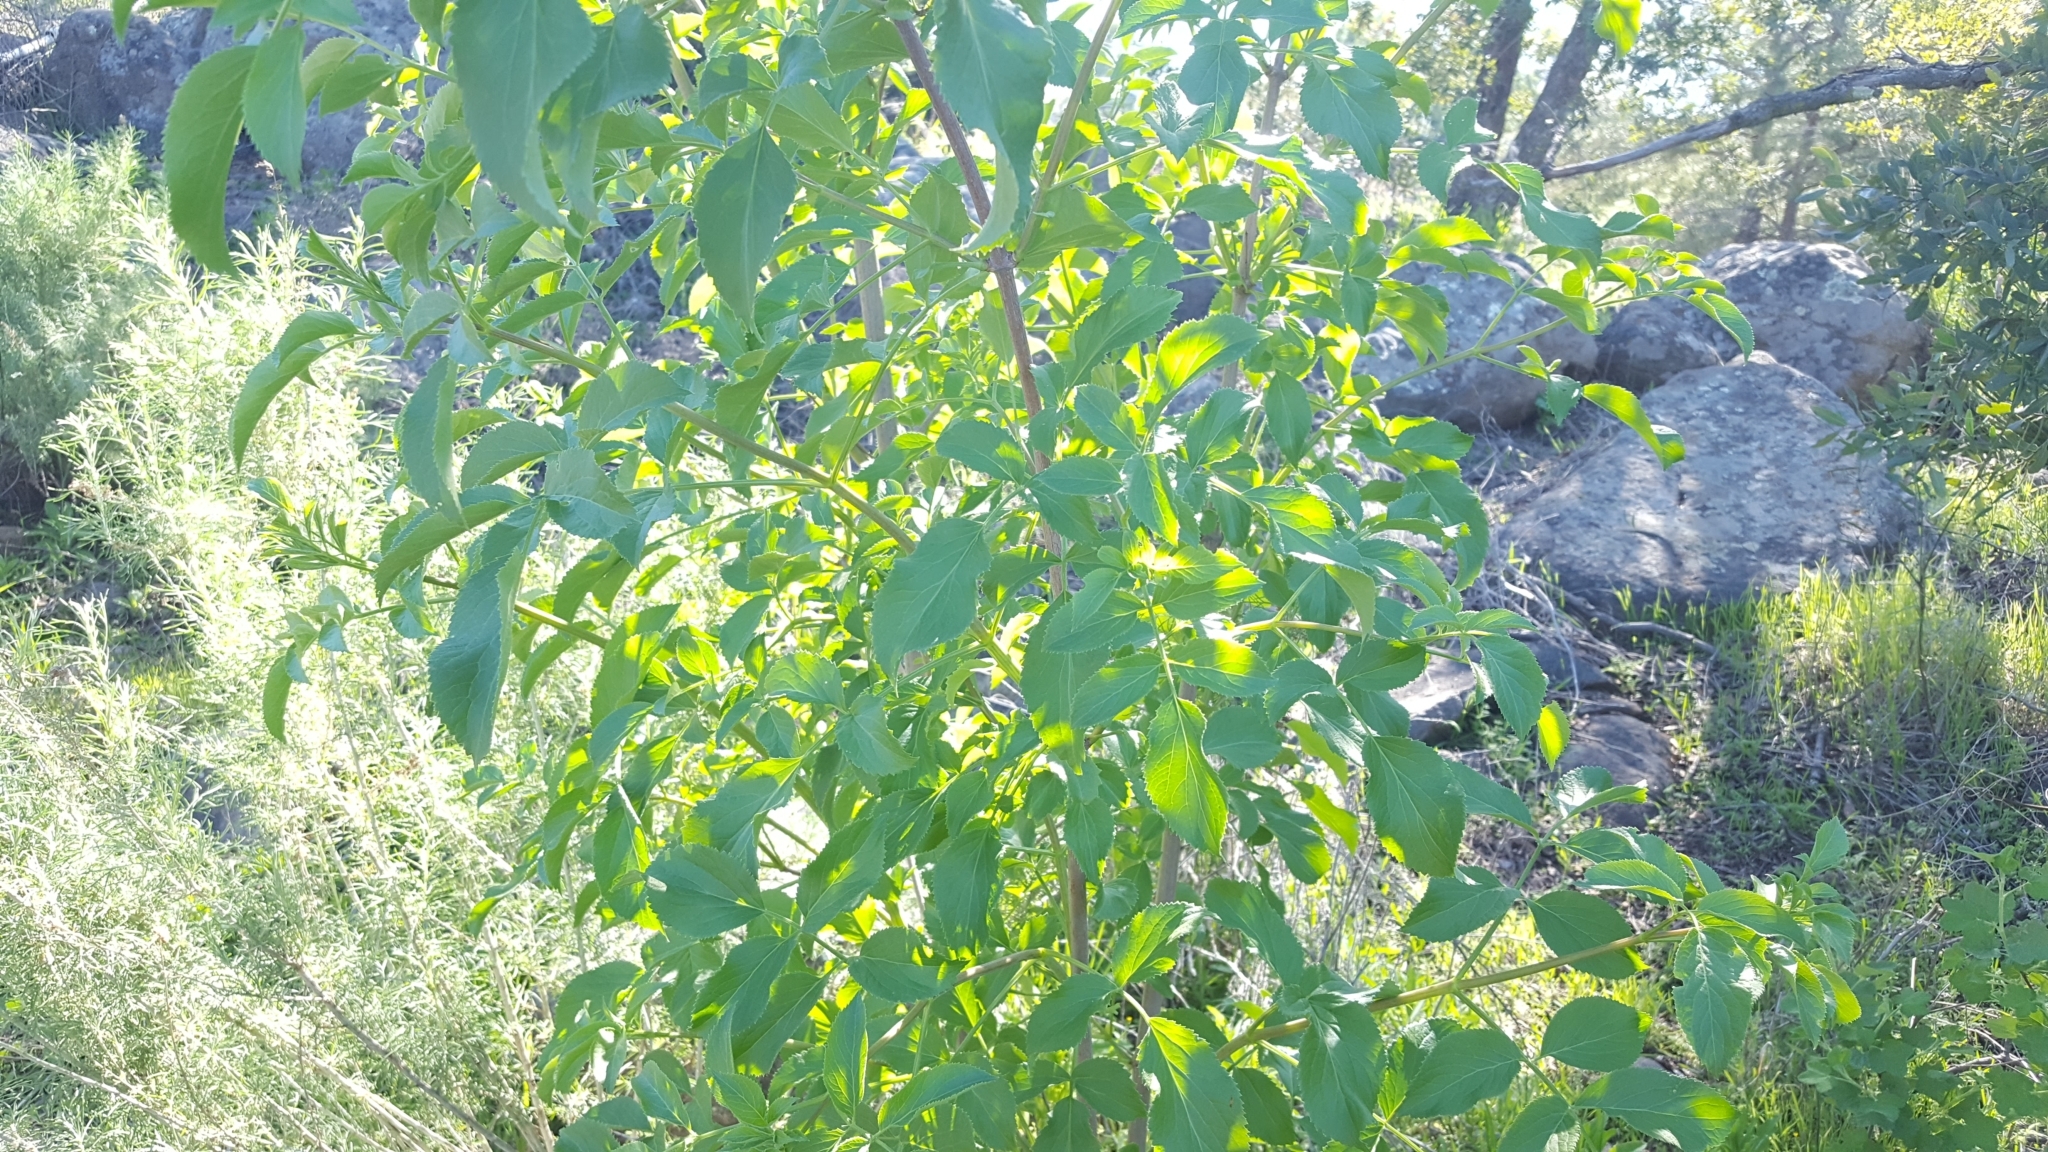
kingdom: Plantae
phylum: Tracheophyta
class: Magnoliopsida
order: Dipsacales
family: Viburnaceae
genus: Sambucus
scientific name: Sambucus cerulea
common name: Blue elder
